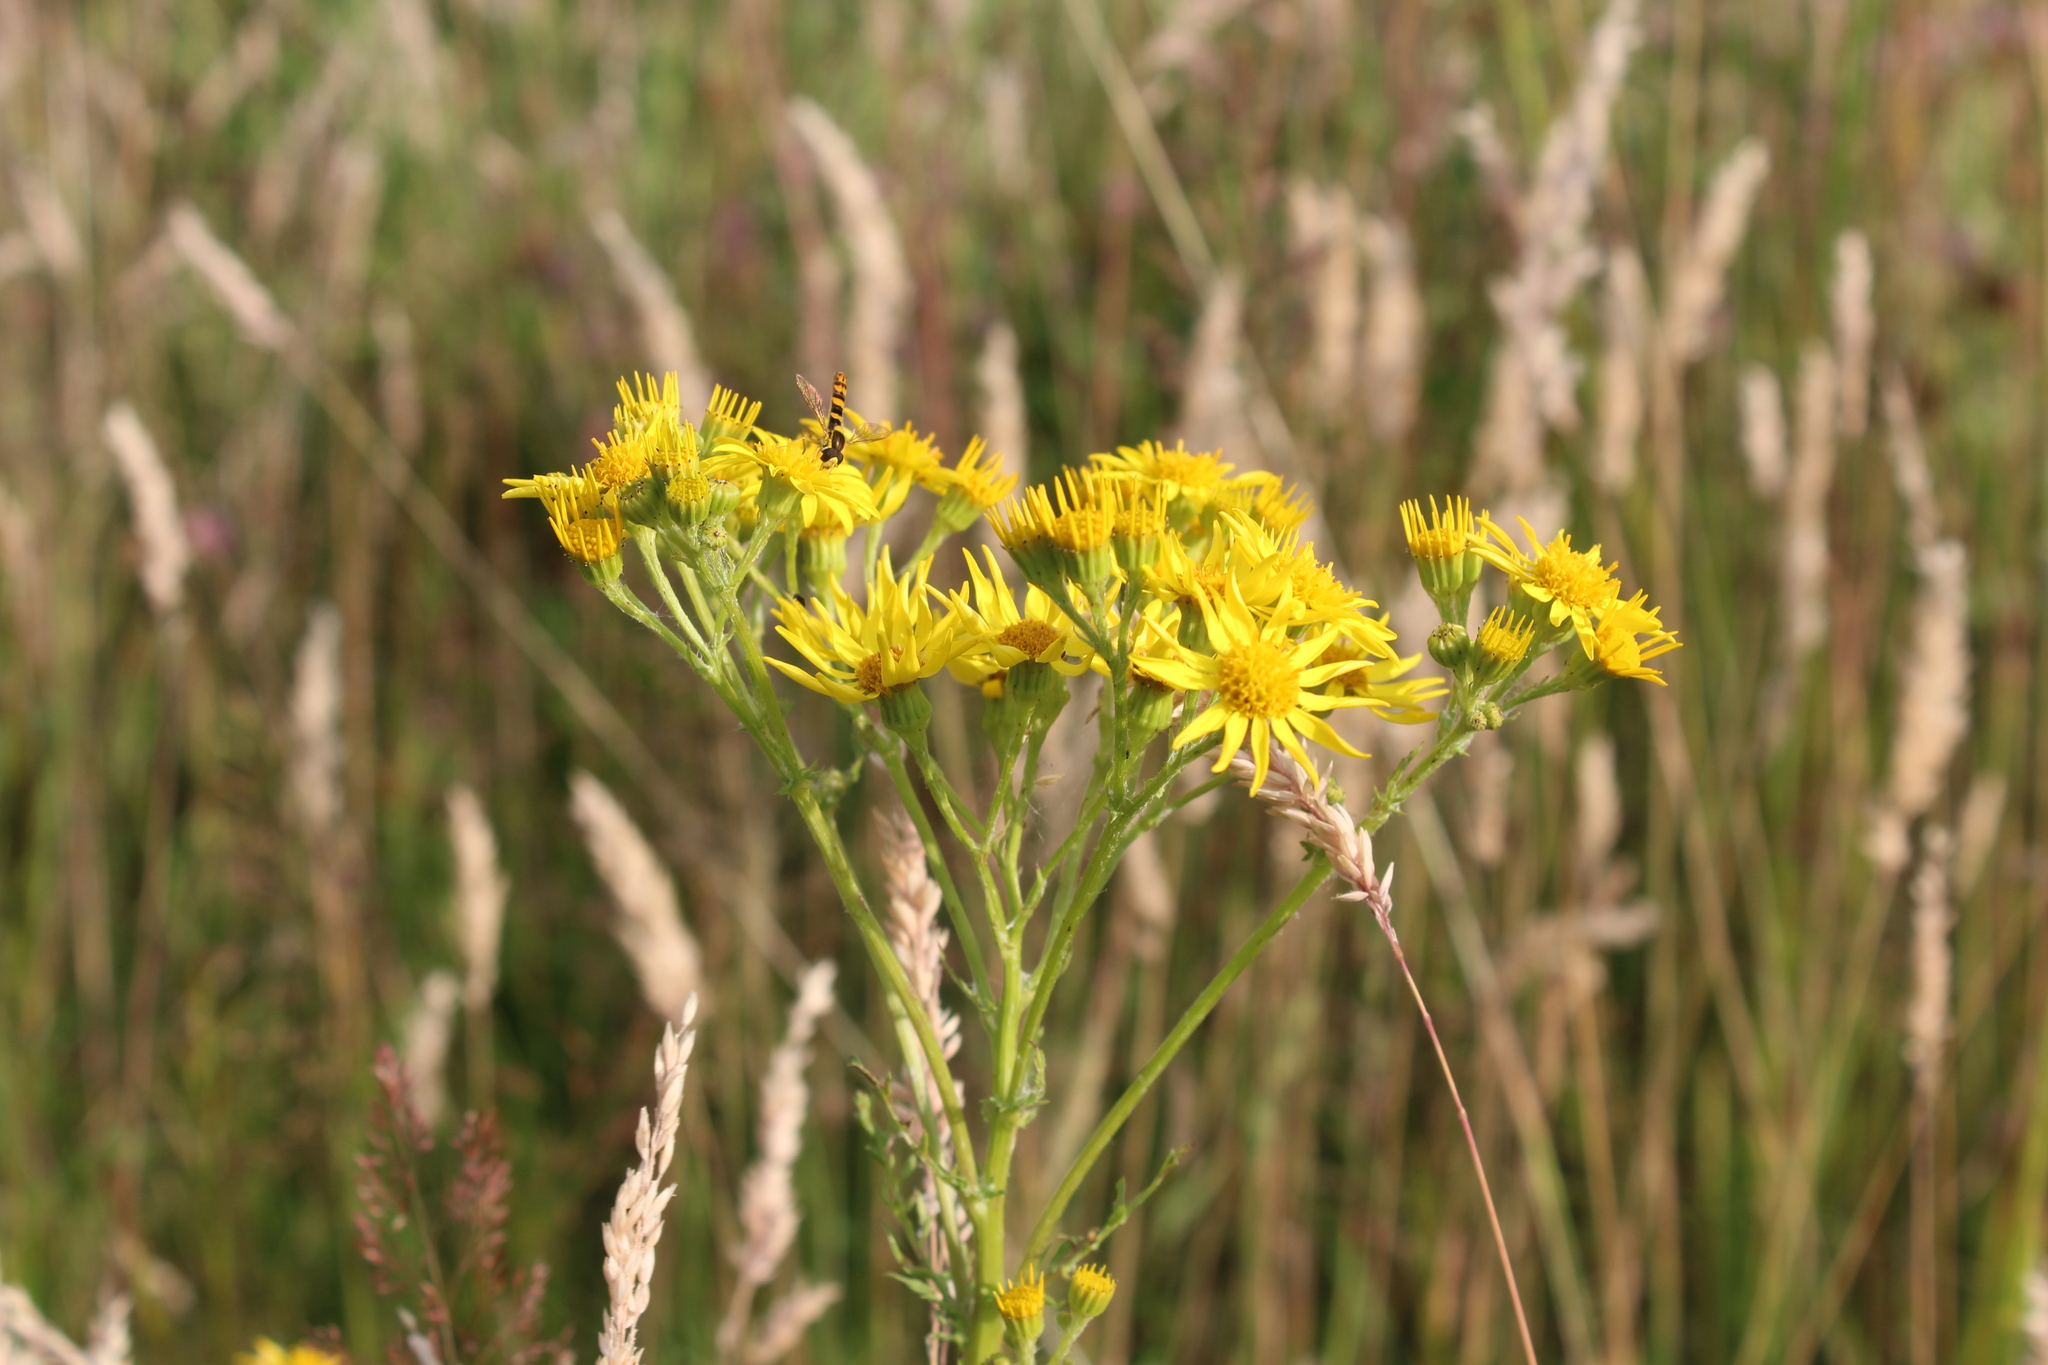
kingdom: Plantae
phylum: Tracheophyta
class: Magnoliopsida
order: Asterales
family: Asteraceae
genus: Jacobaea
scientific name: Jacobaea vulgaris
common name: Stinking willie
